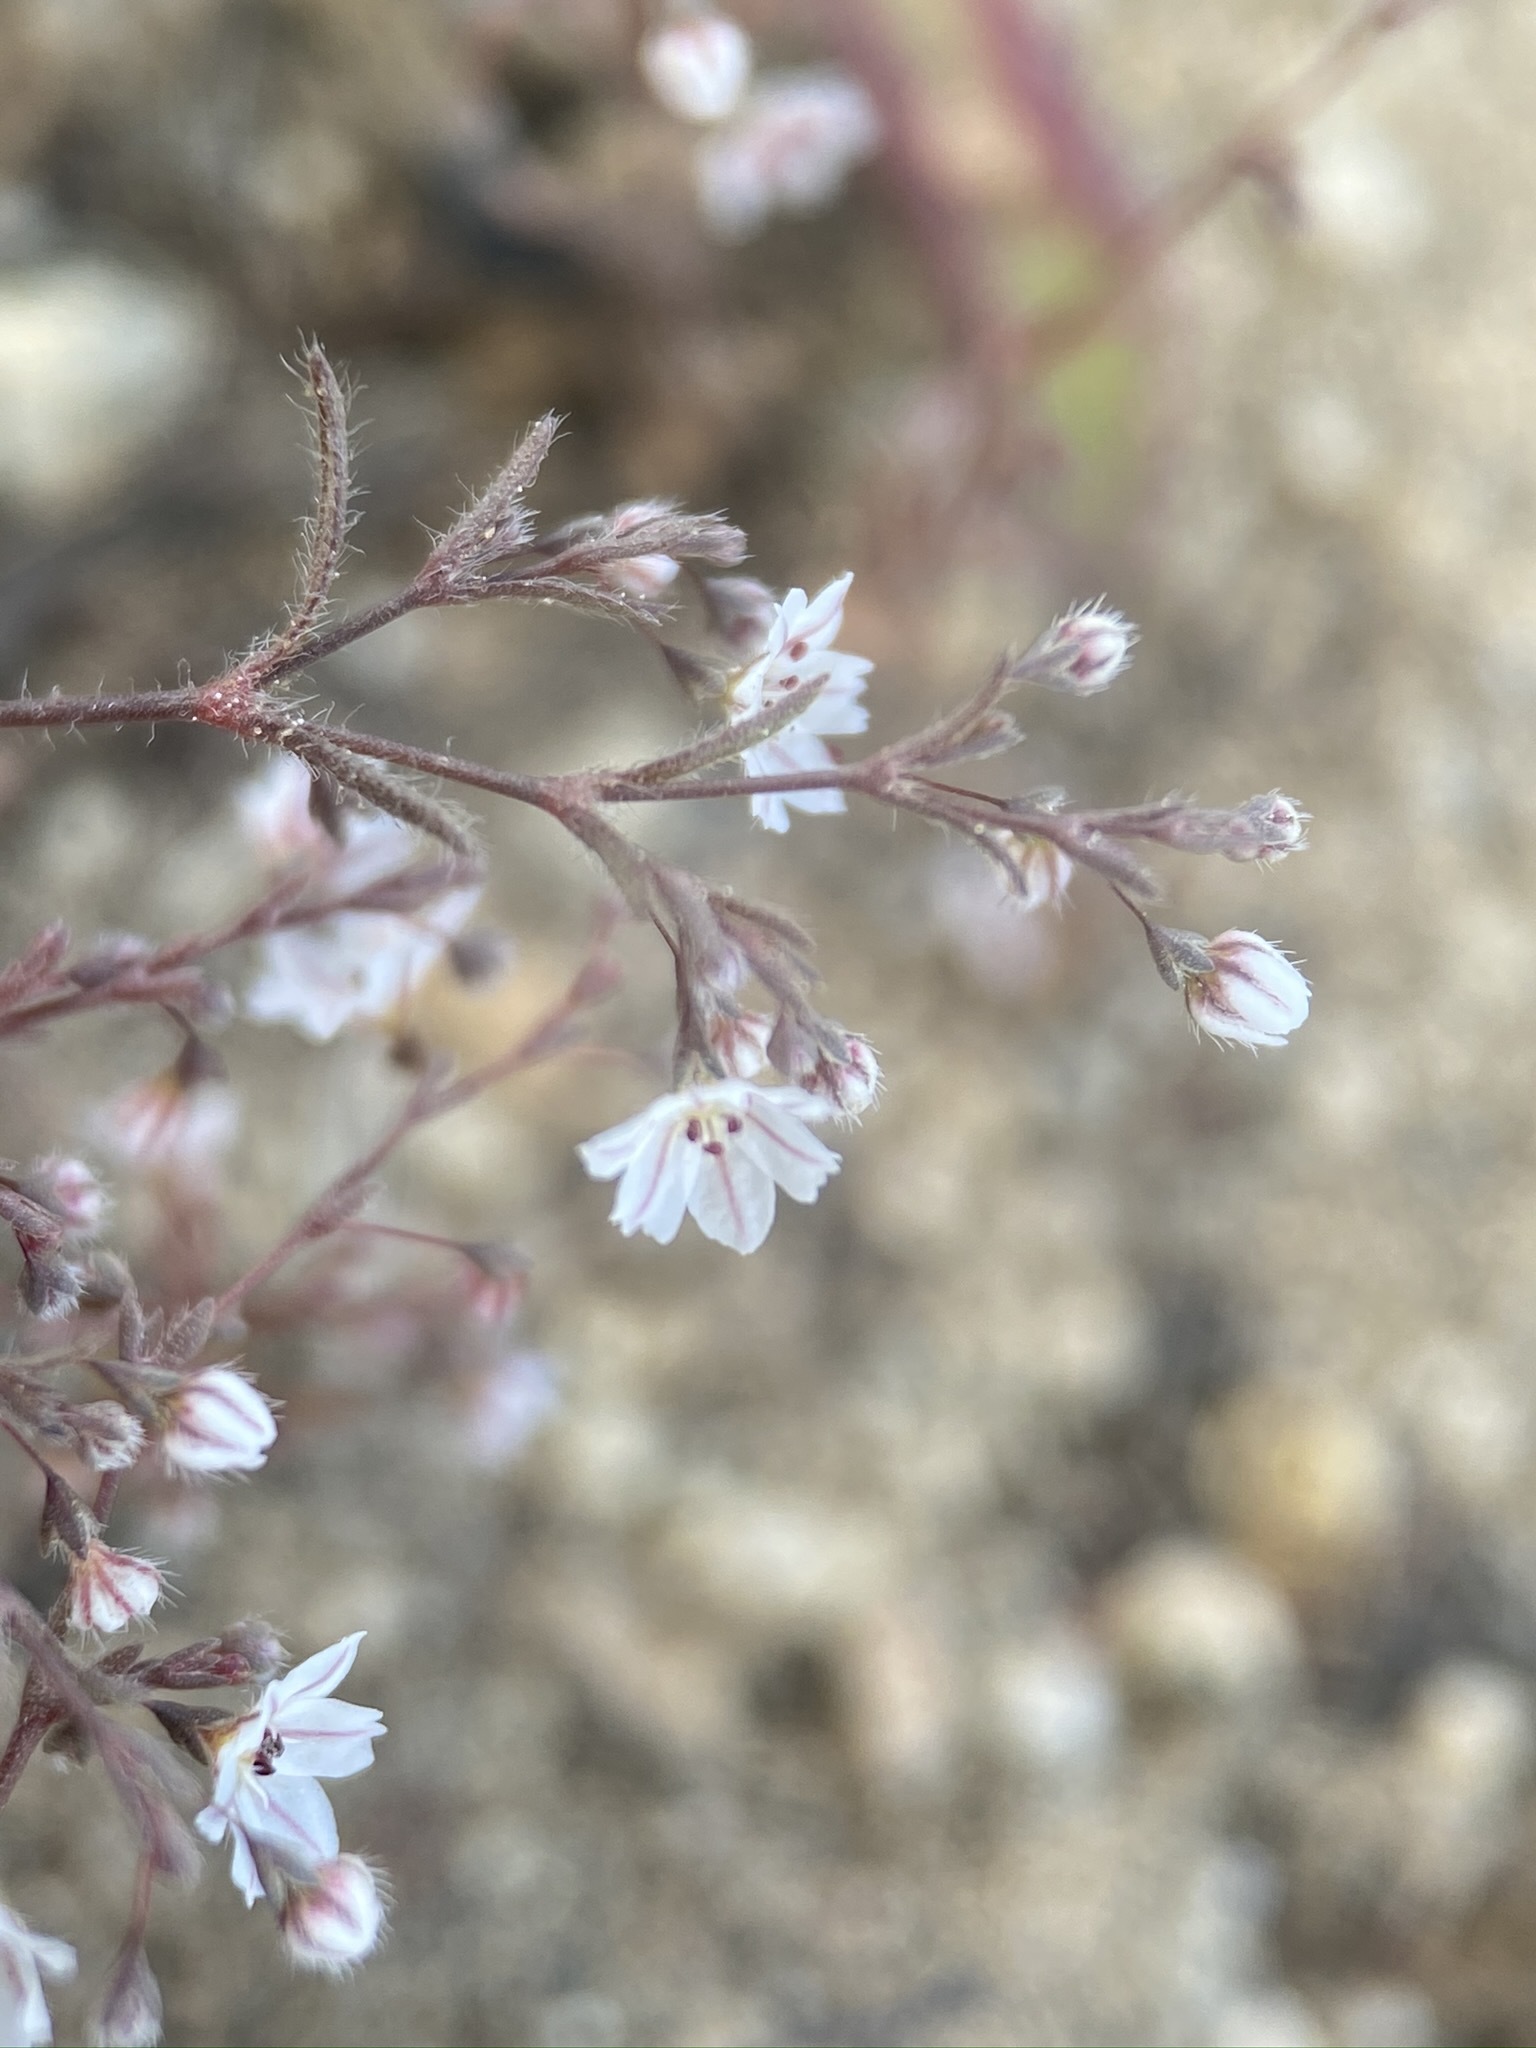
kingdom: Plantae
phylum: Tracheophyta
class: Magnoliopsida
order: Caryophyllales
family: Polygonaceae
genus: Eriogonum
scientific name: Eriogonum spergulinum
